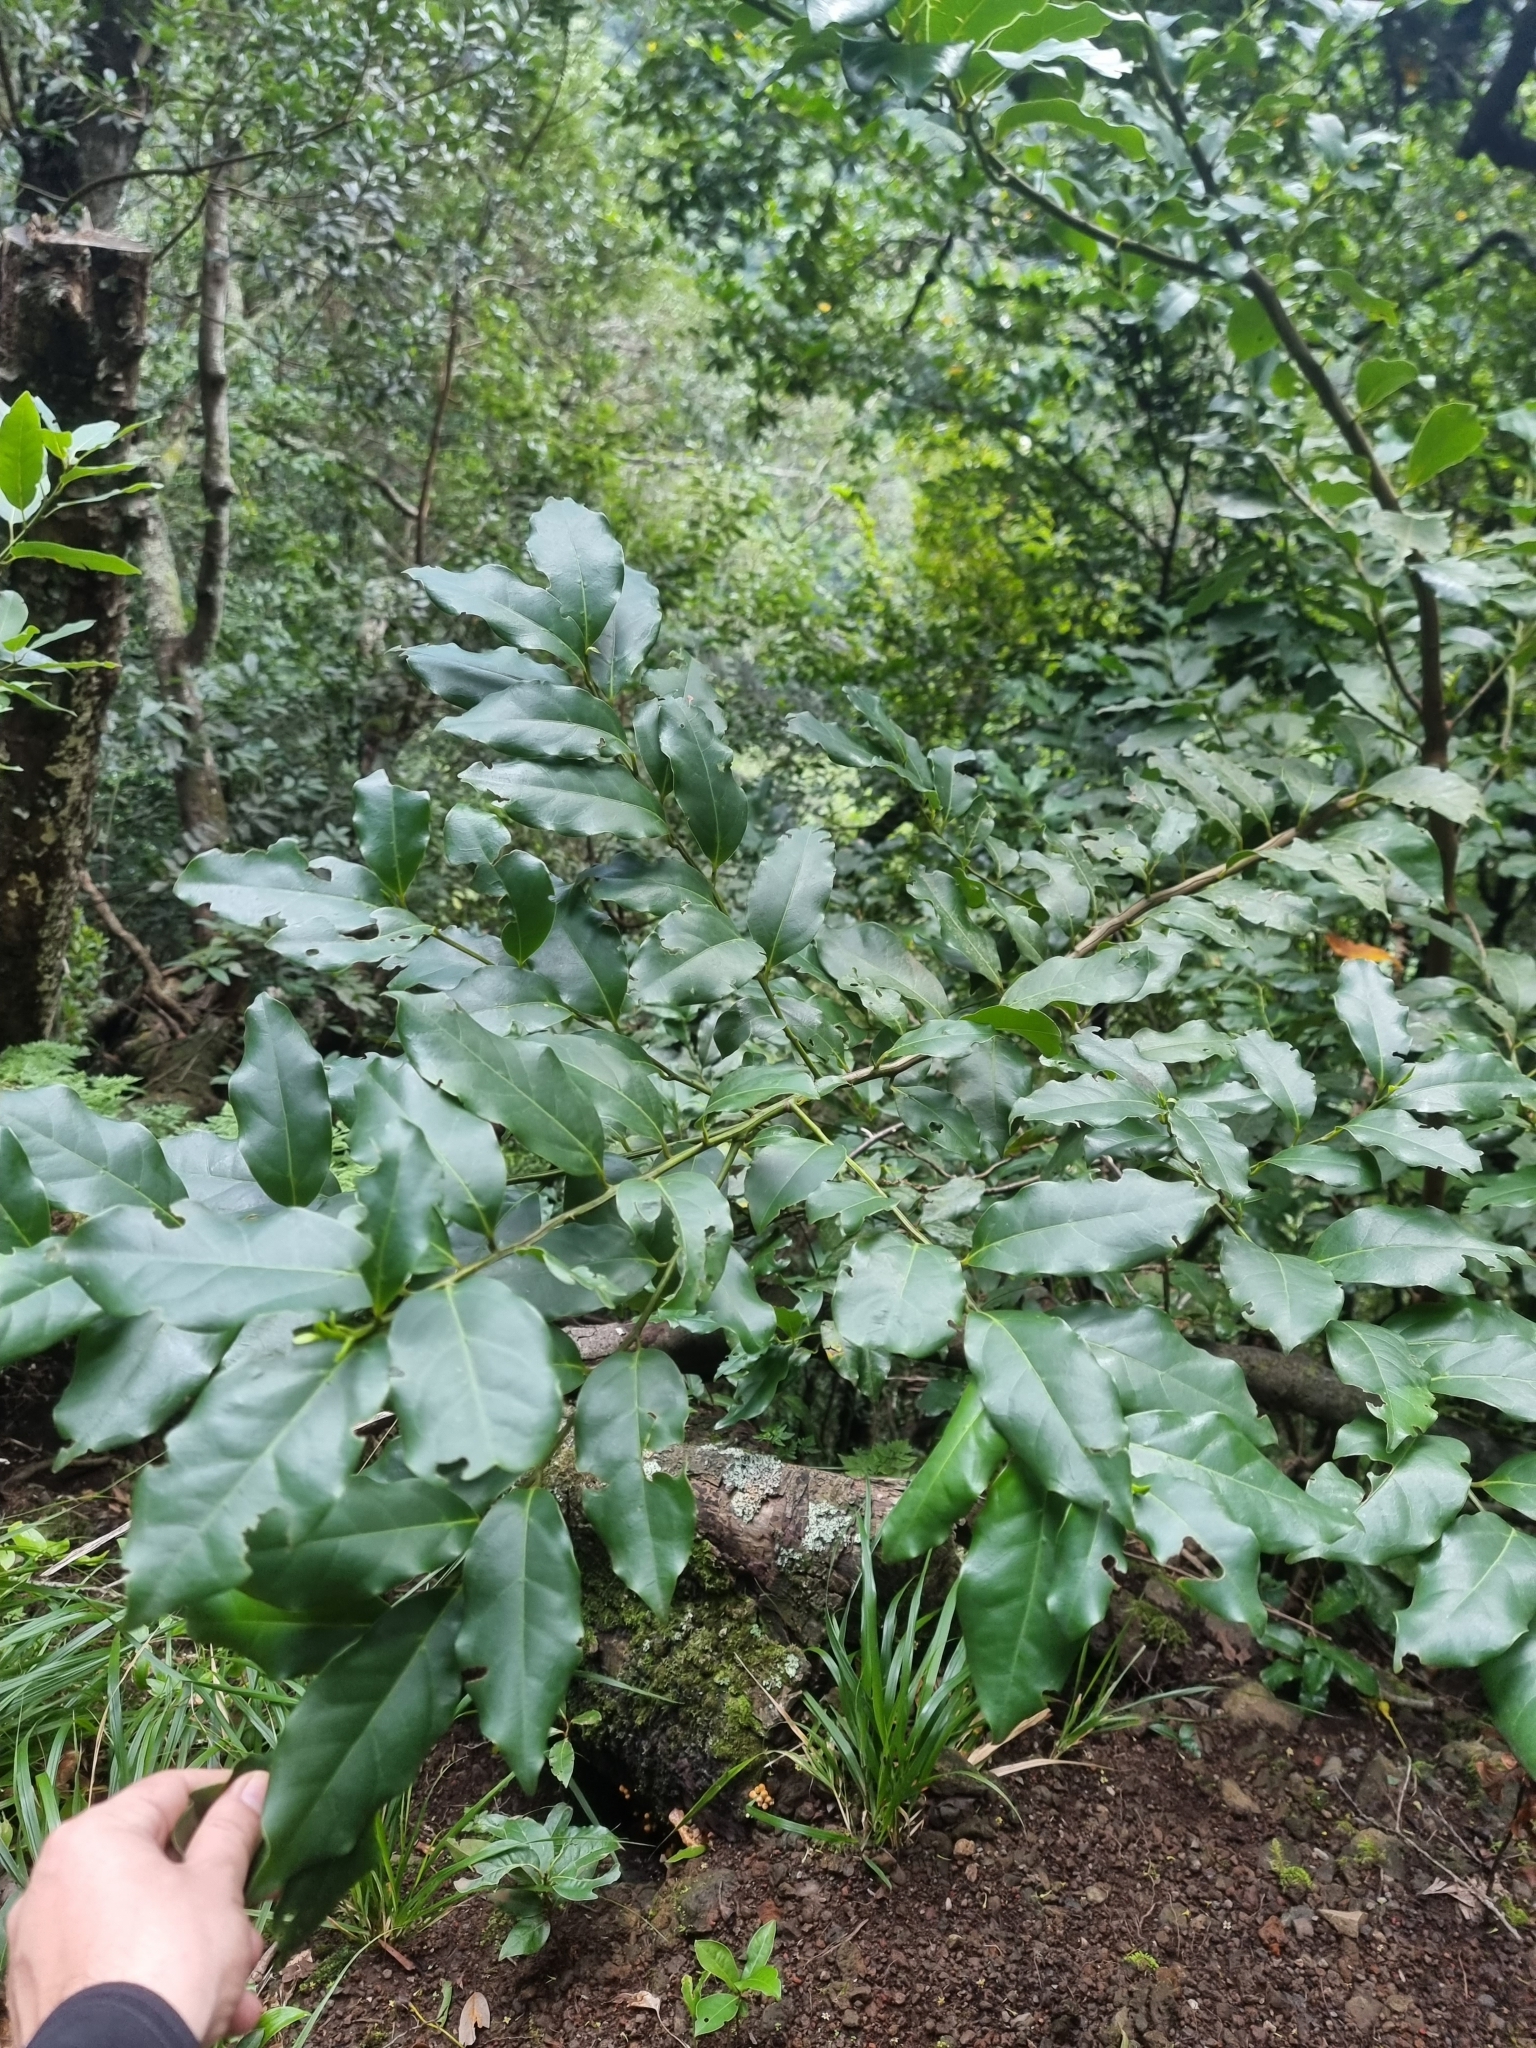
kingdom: Plantae
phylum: Tracheophyta
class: Magnoliopsida
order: Laurales
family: Lauraceae
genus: Mespilodaphne
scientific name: Mespilodaphne foetens
